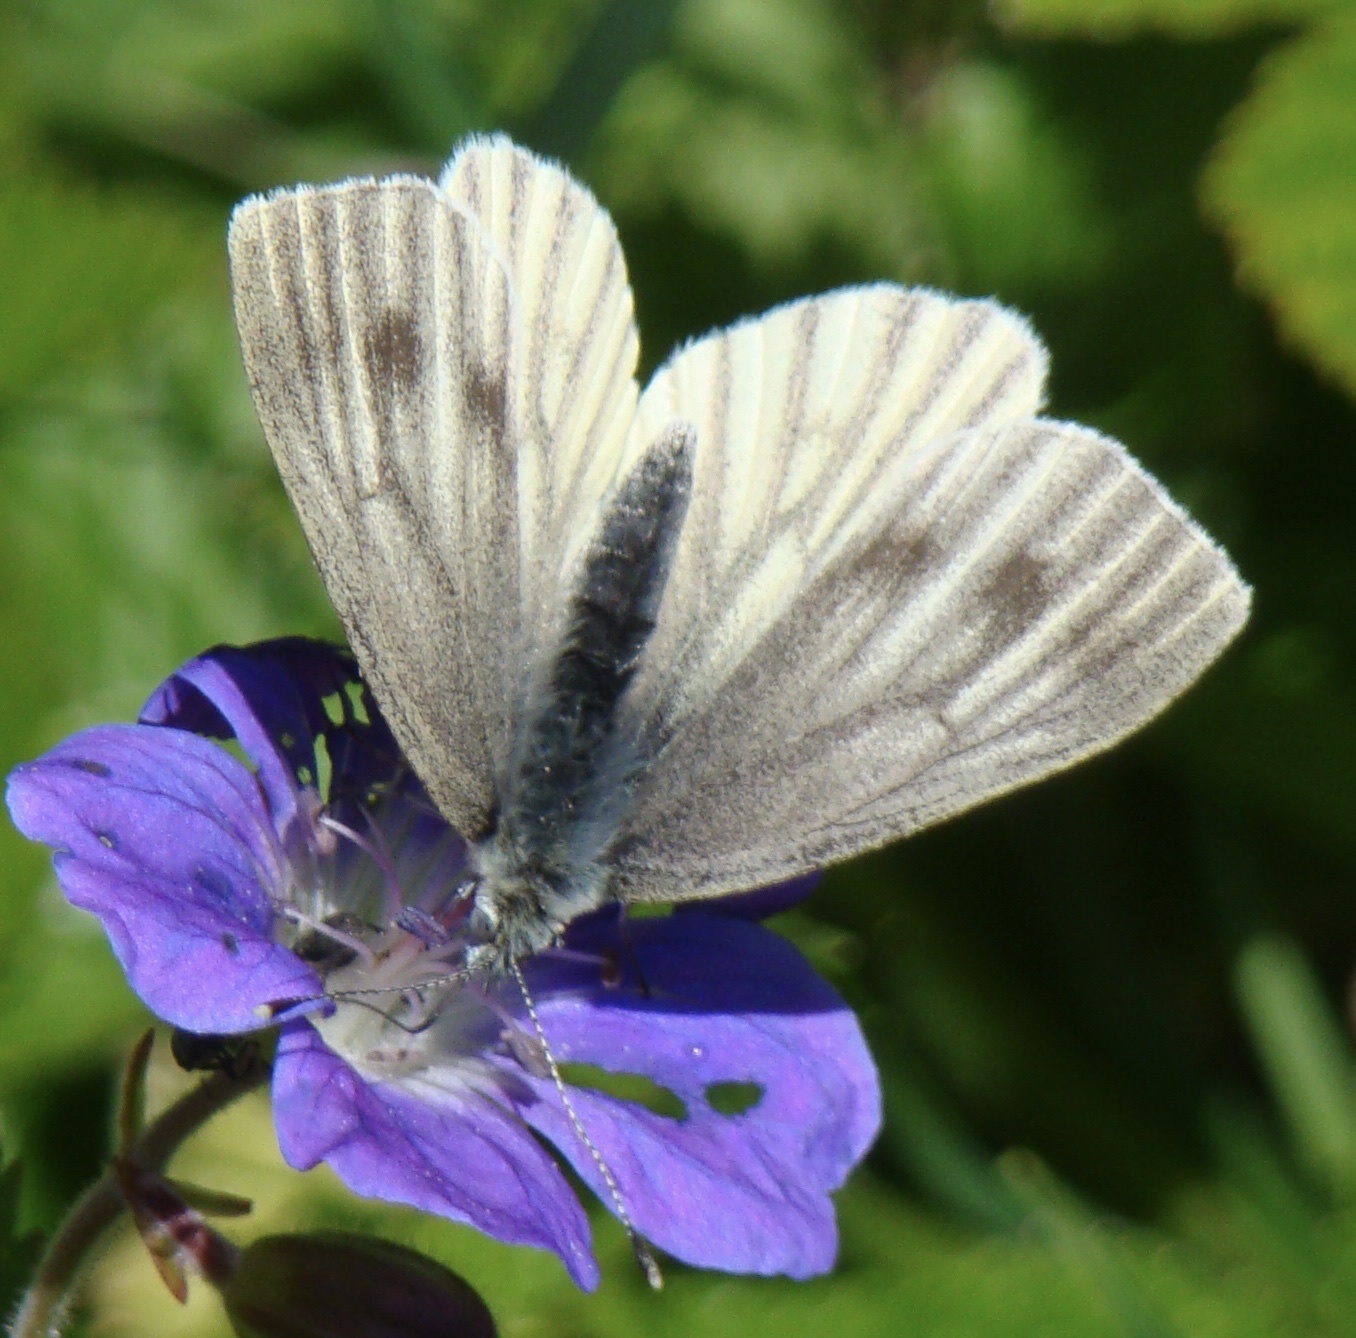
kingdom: Animalia
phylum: Arthropoda
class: Insecta
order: Lepidoptera
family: Pieridae
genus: Pieris
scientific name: Pieris napi
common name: Green-veined white
